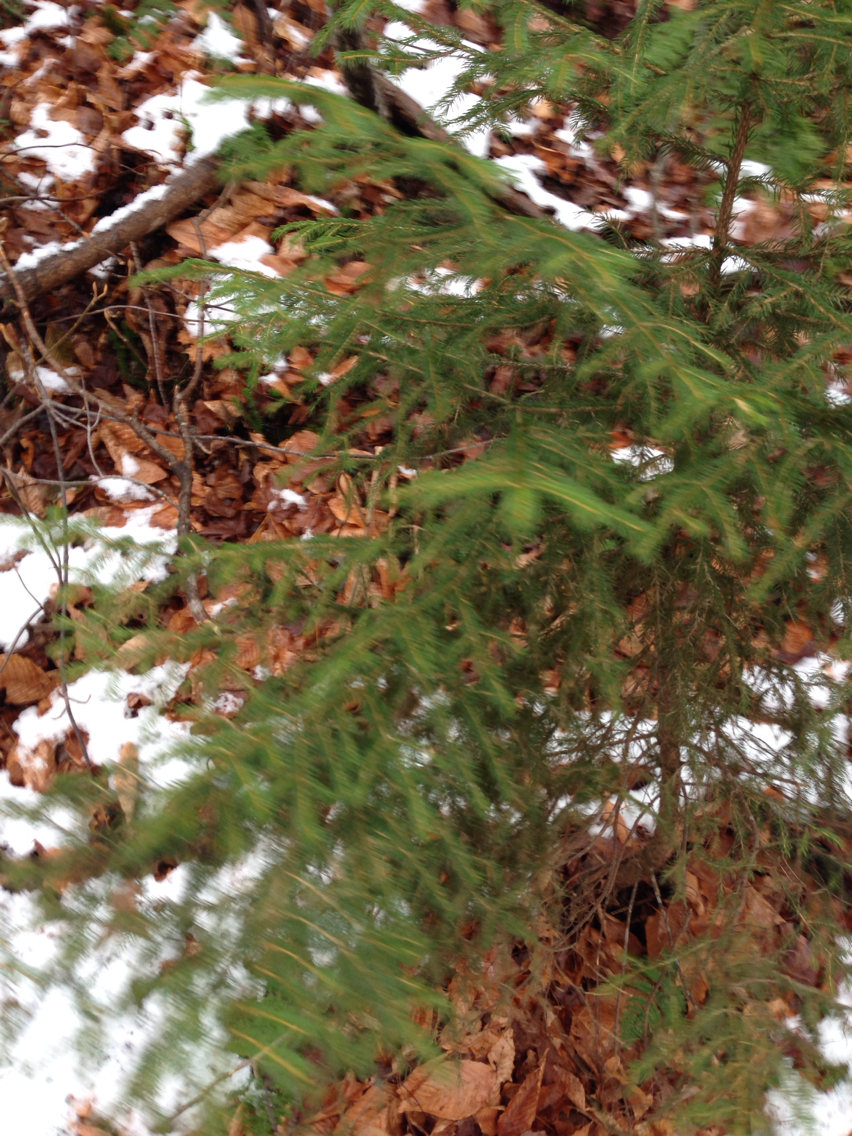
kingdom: Plantae
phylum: Tracheophyta
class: Pinopsida
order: Pinales
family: Pinaceae
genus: Picea
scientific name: Picea rubens
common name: Red spruce
